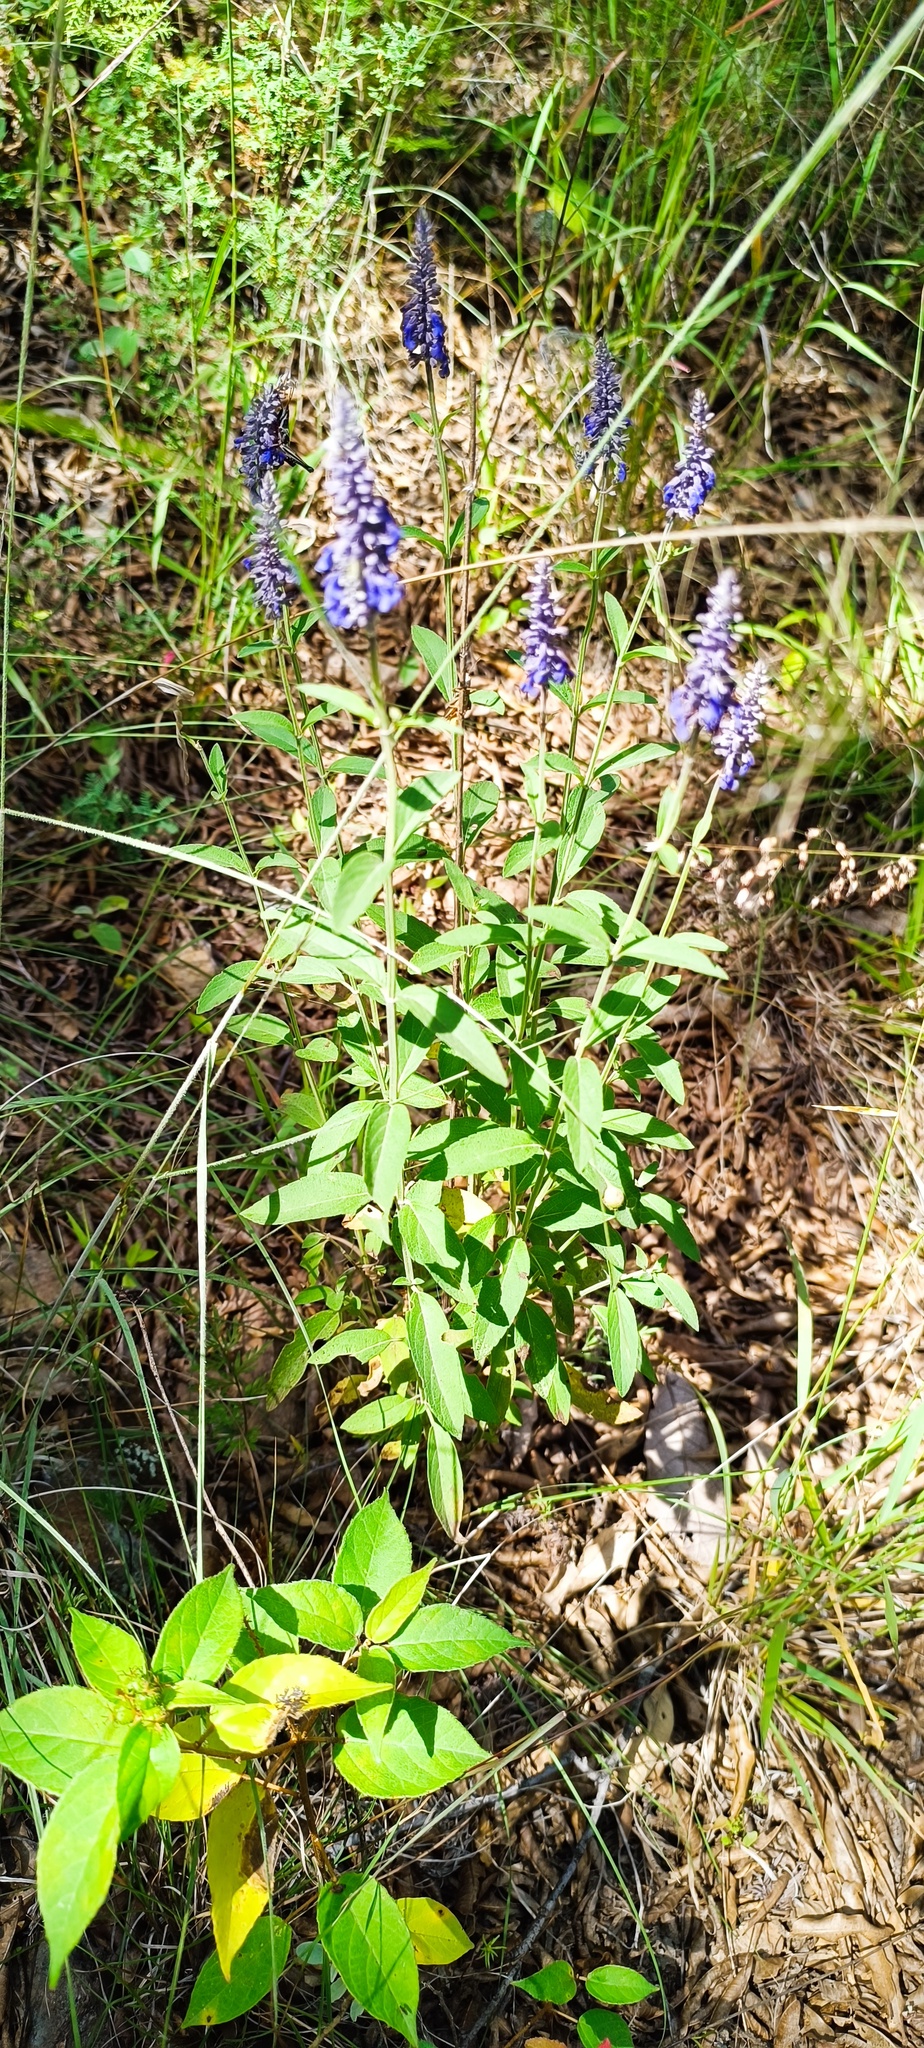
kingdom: Plantae
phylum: Tracheophyta
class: Magnoliopsida
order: Lamiales
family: Lamiaceae
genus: Salvia
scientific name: Salvia lavanduloides
